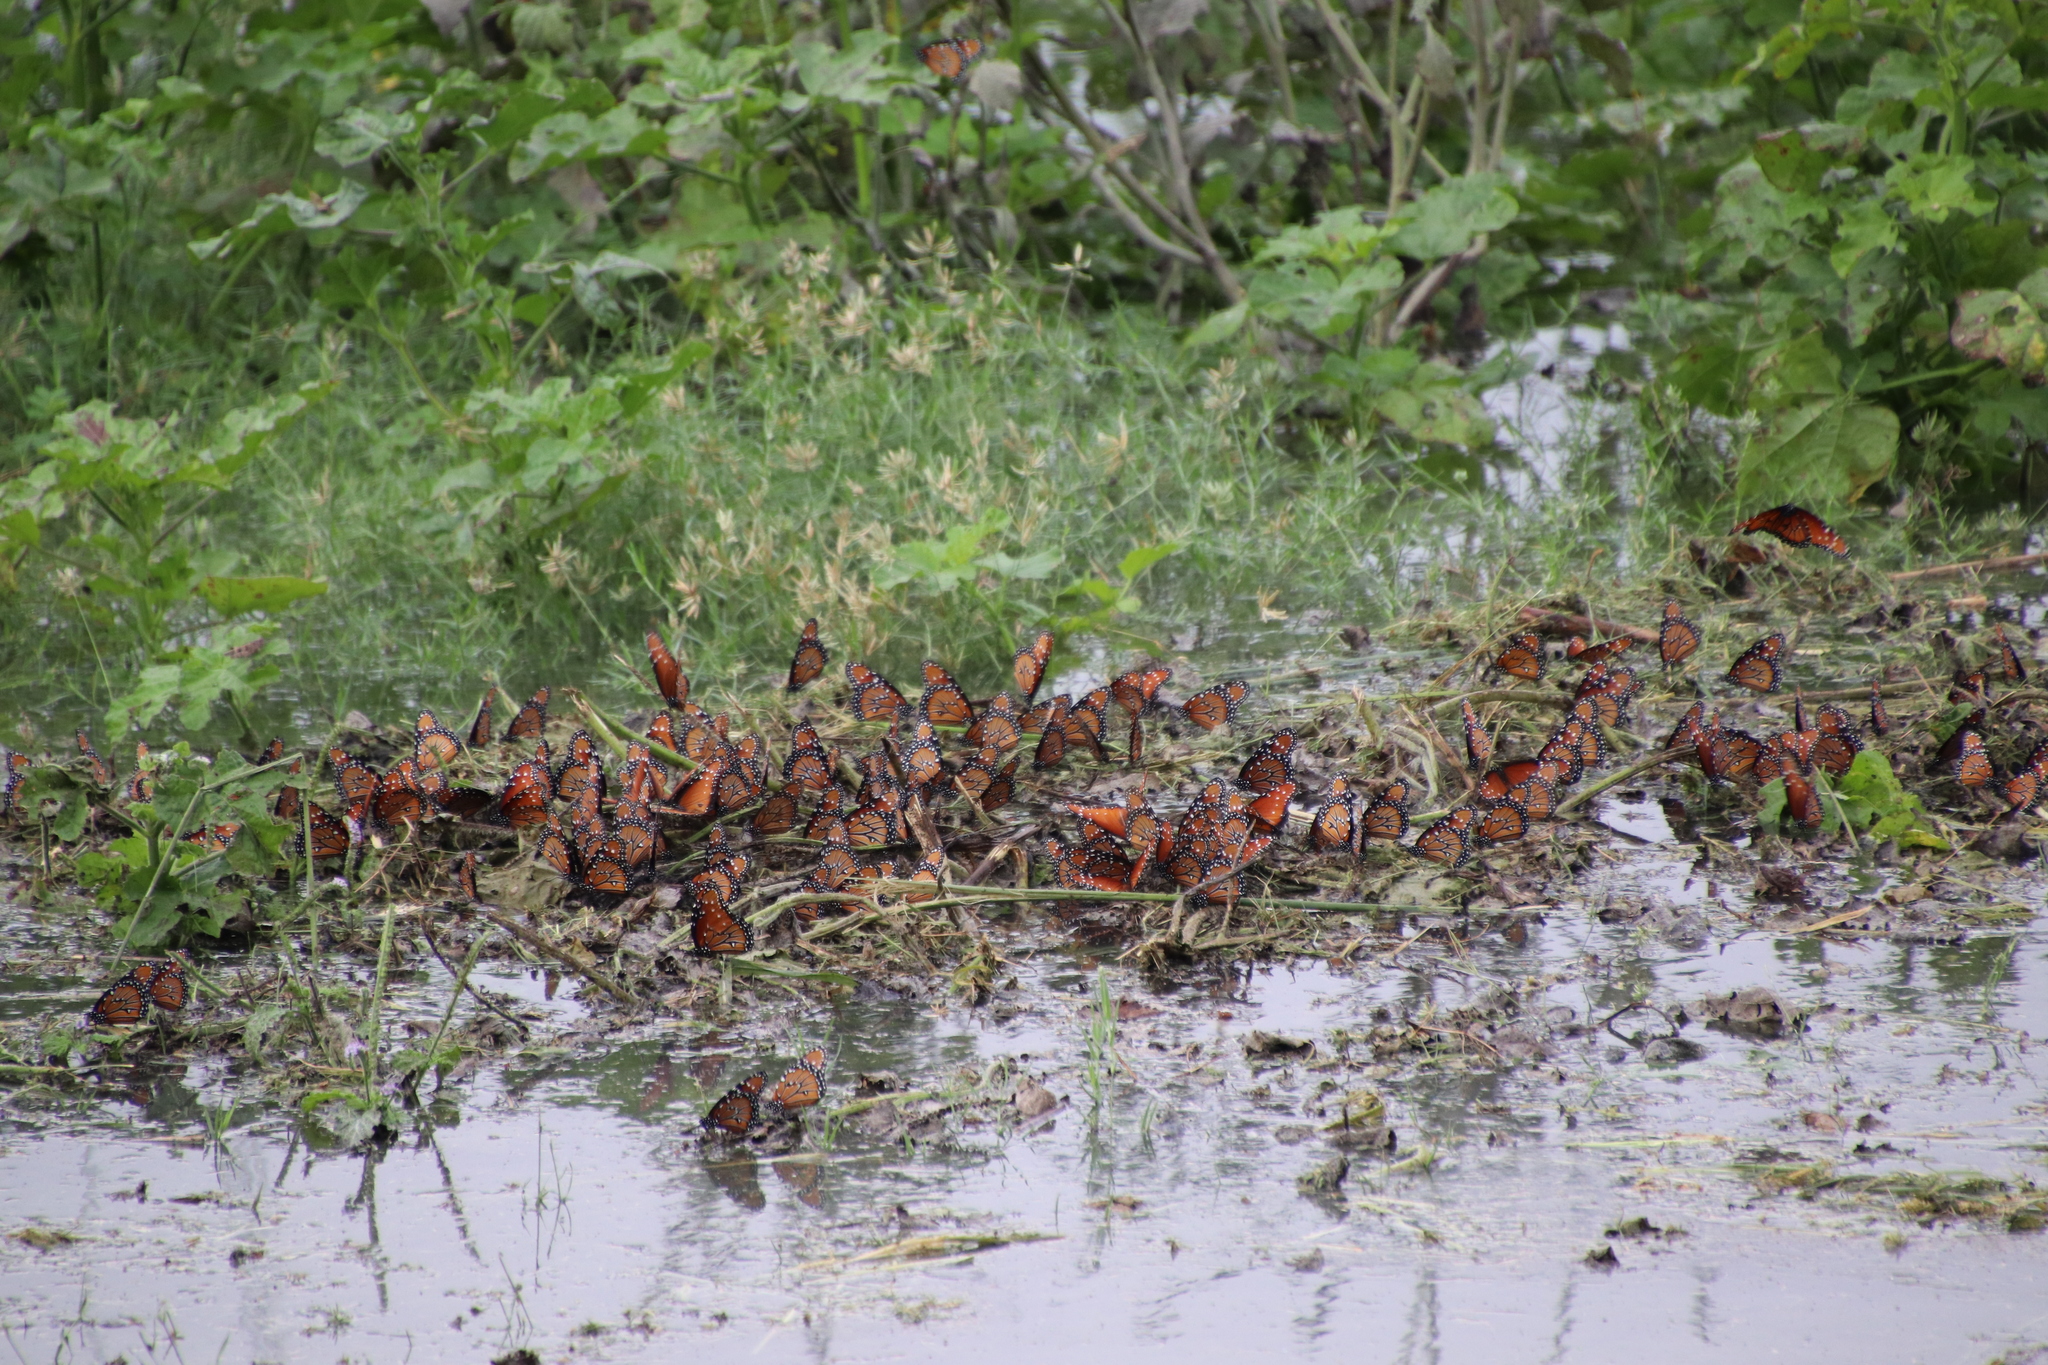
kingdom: Animalia
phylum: Arthropoda
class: Insecta
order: Lepidoptera
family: Nymphalidae
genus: Danaus
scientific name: Danaus gilippus
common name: Queen
